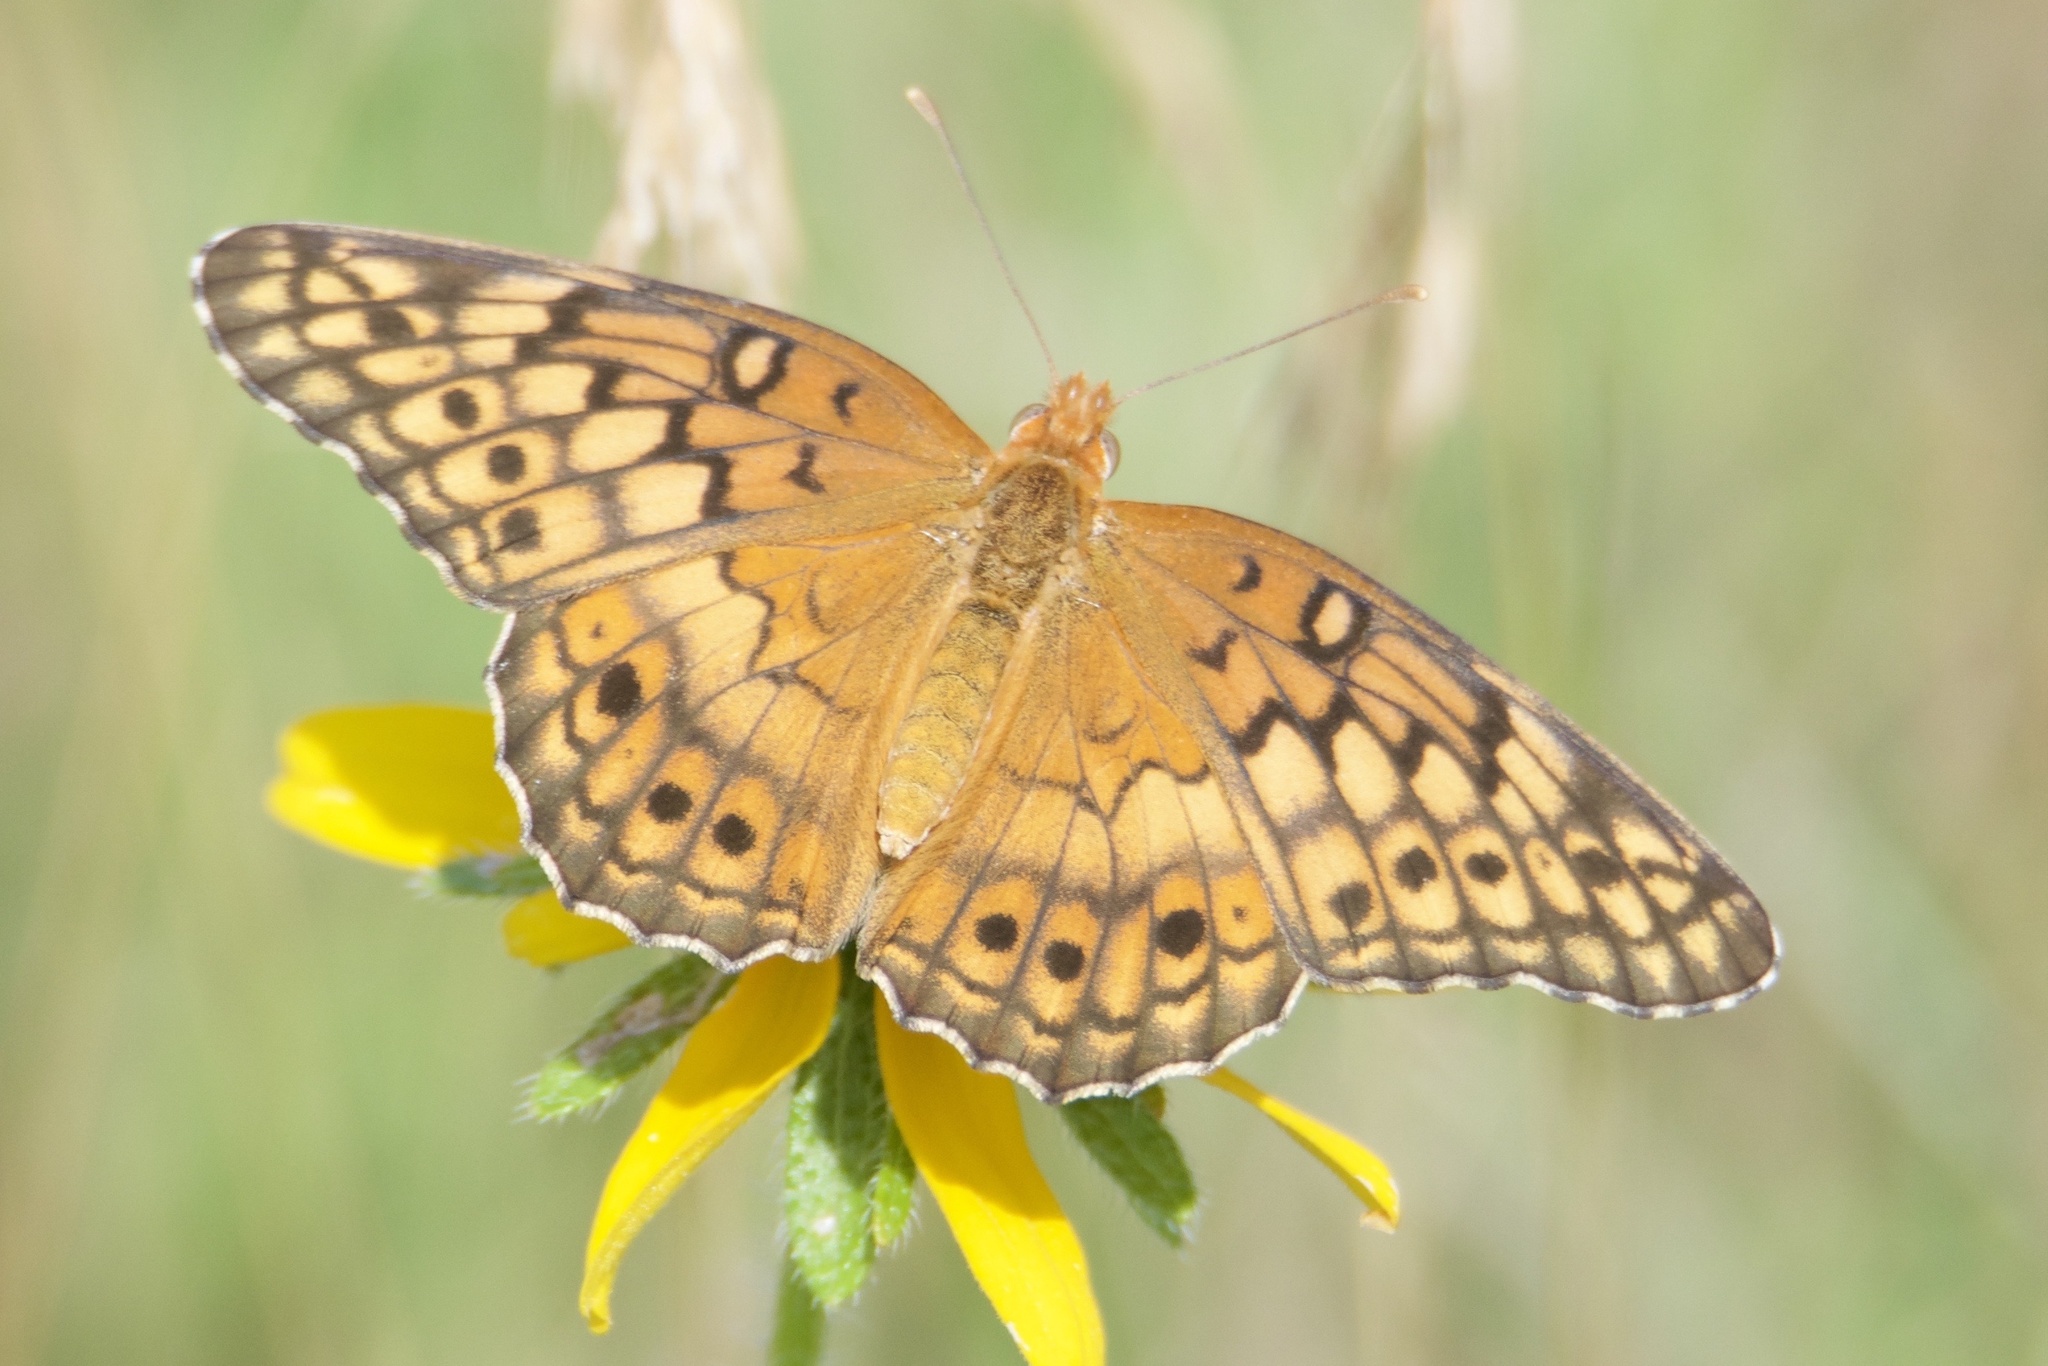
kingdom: Animalia
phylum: Arthropoda
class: Insecta
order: Lepidoptera
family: Nymphalidae
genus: Euptoieta
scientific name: Euptoieta claudia
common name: Variegated fritillary
